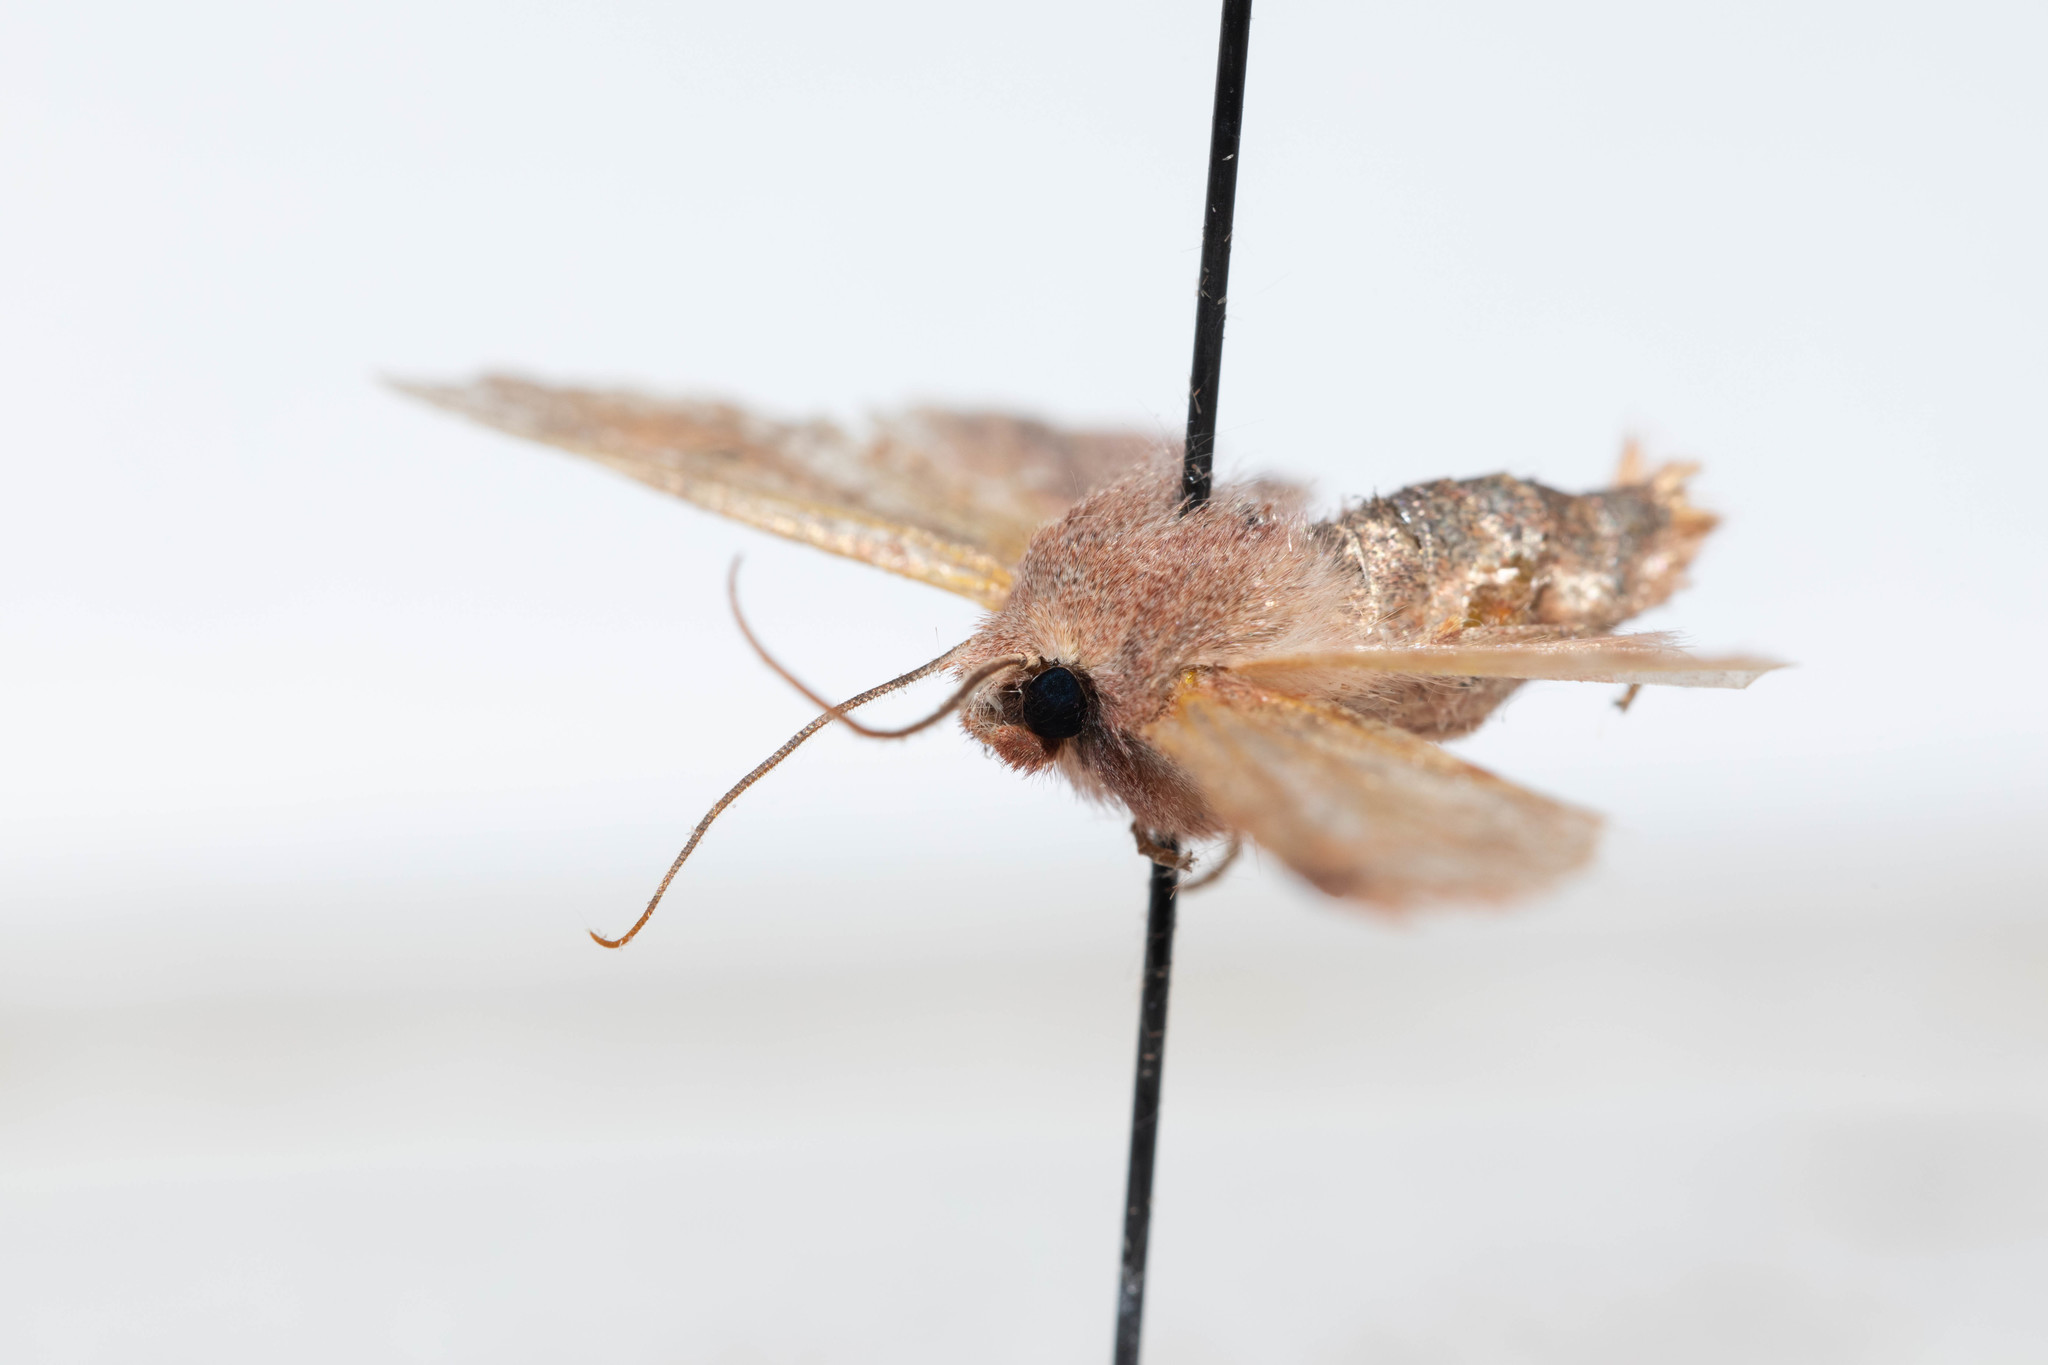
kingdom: Animalia
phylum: Arthropoda
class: Insecta
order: Lepidoptera
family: Noctuidae
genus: Agrochola
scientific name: Agrochola purpurea
